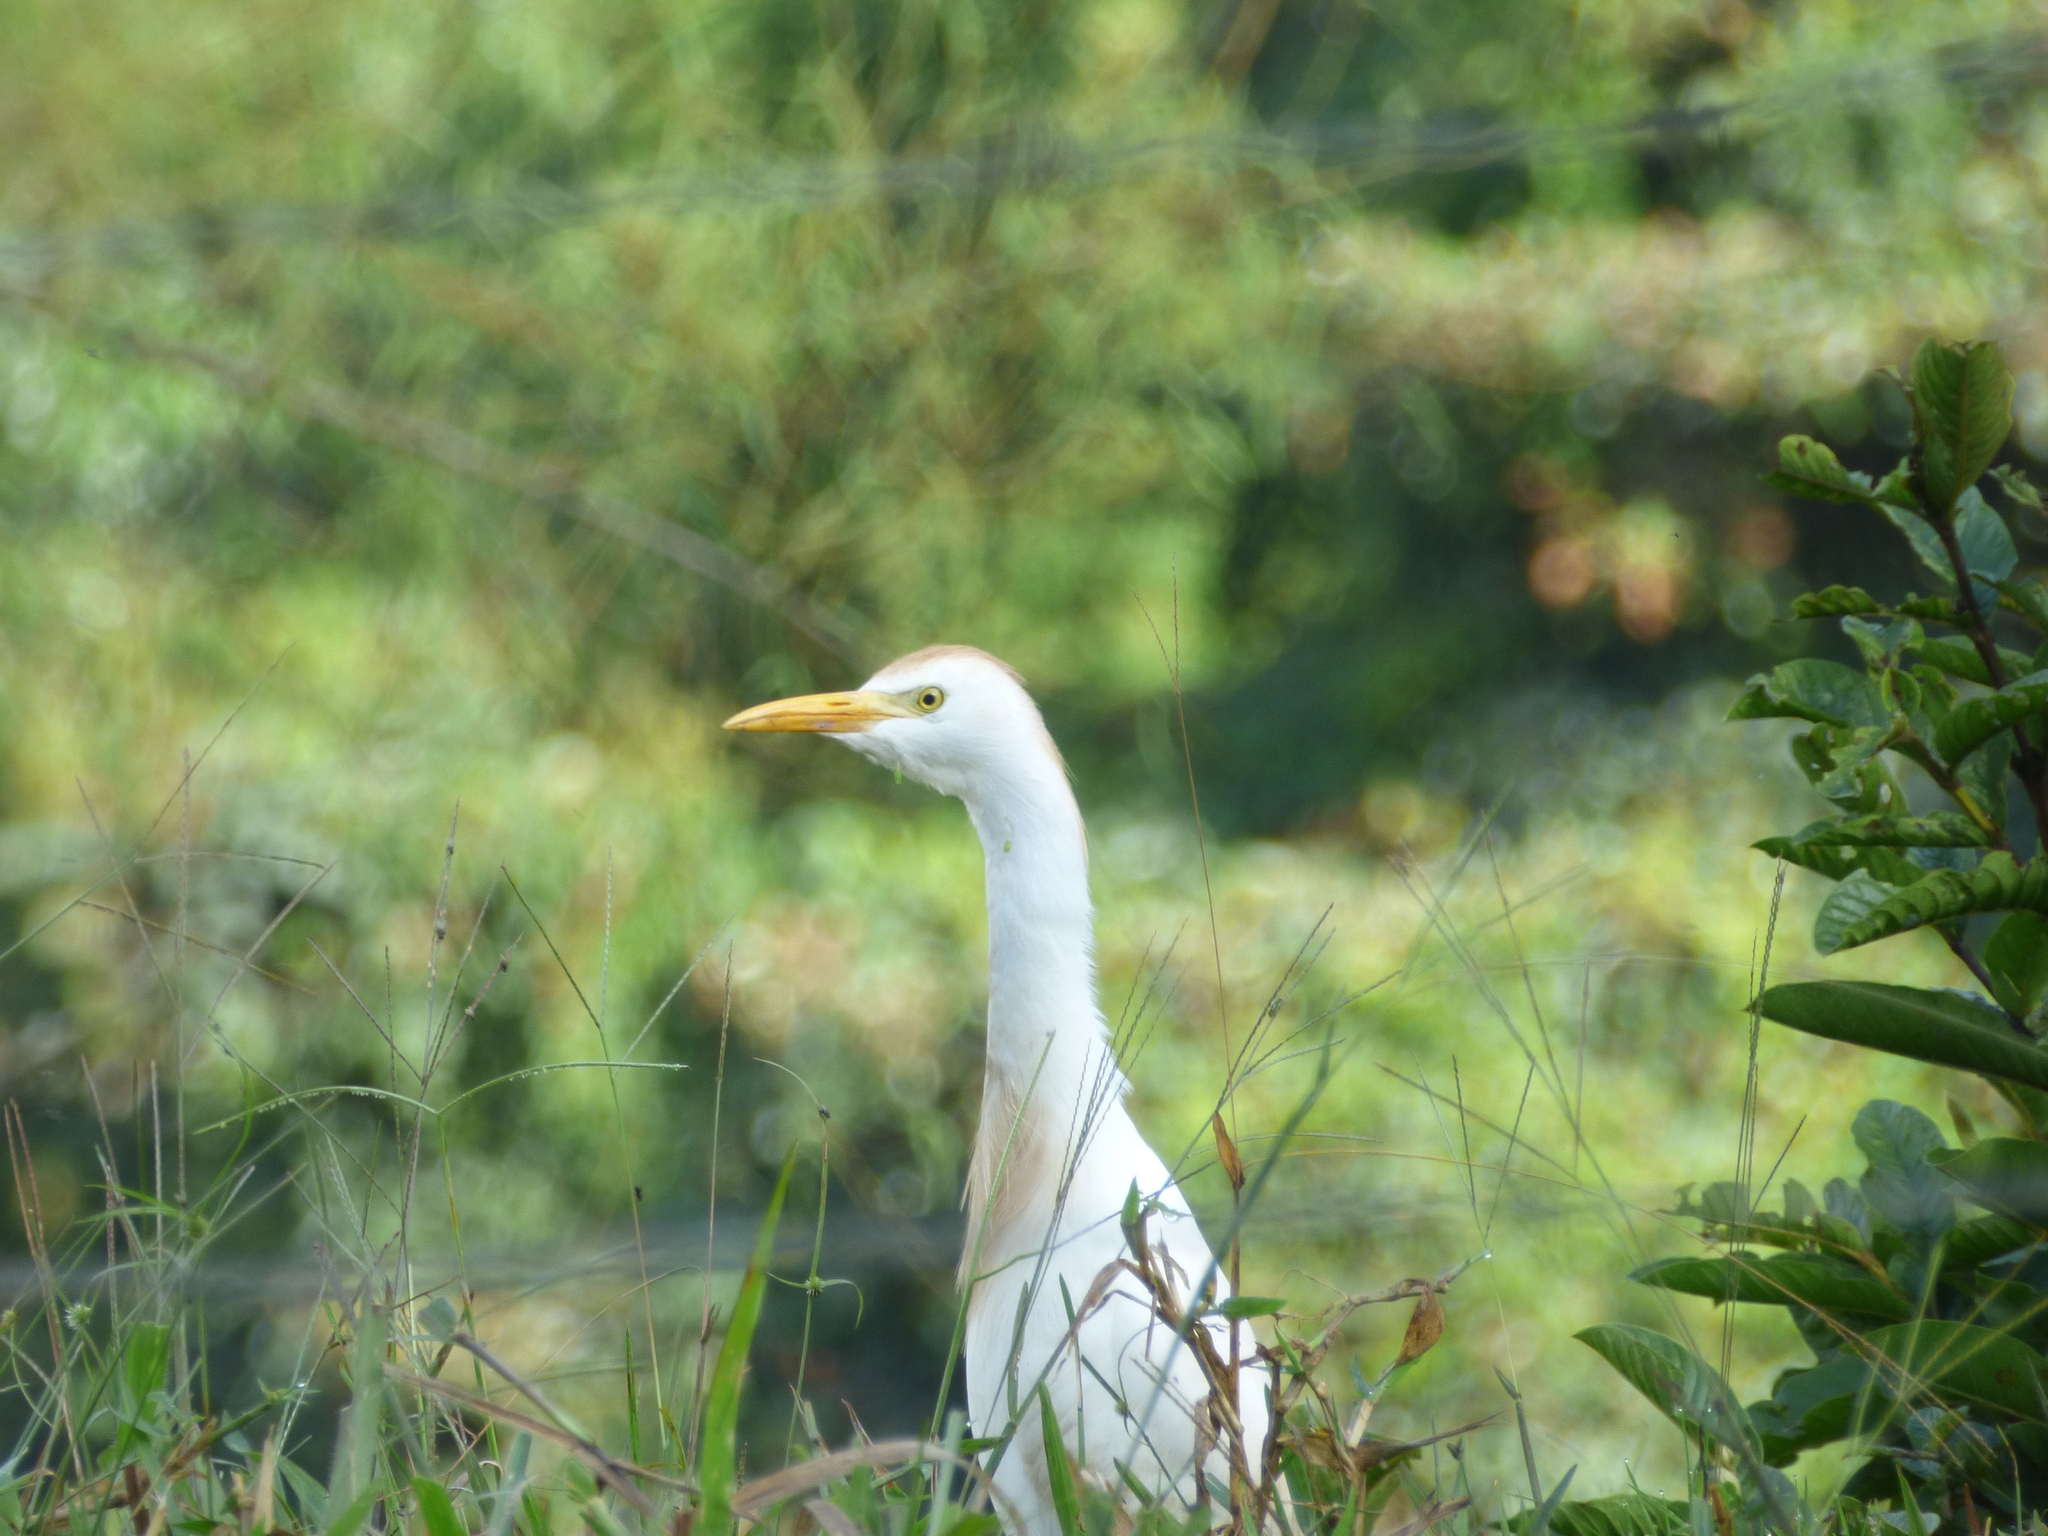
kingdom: Animalia
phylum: Chordata
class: Aves
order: Pelecaniformes
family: Ardeidae
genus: Bubulcus
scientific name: Bubulcus ibis
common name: Cattle egret
